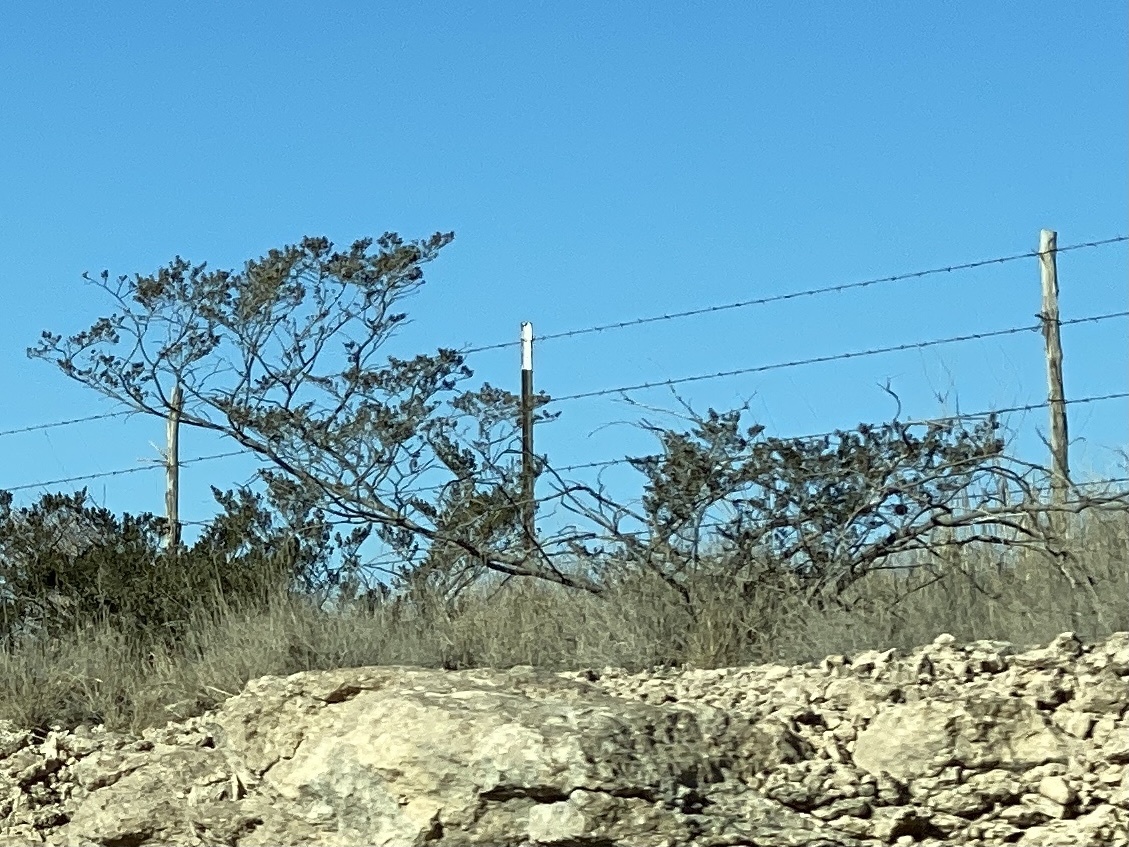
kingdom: Plantae
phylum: Tracheophyta
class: Magnoliopsida
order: Zygophyllales
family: Zygophyllaceae
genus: Larrea
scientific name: Larrea tridentata
